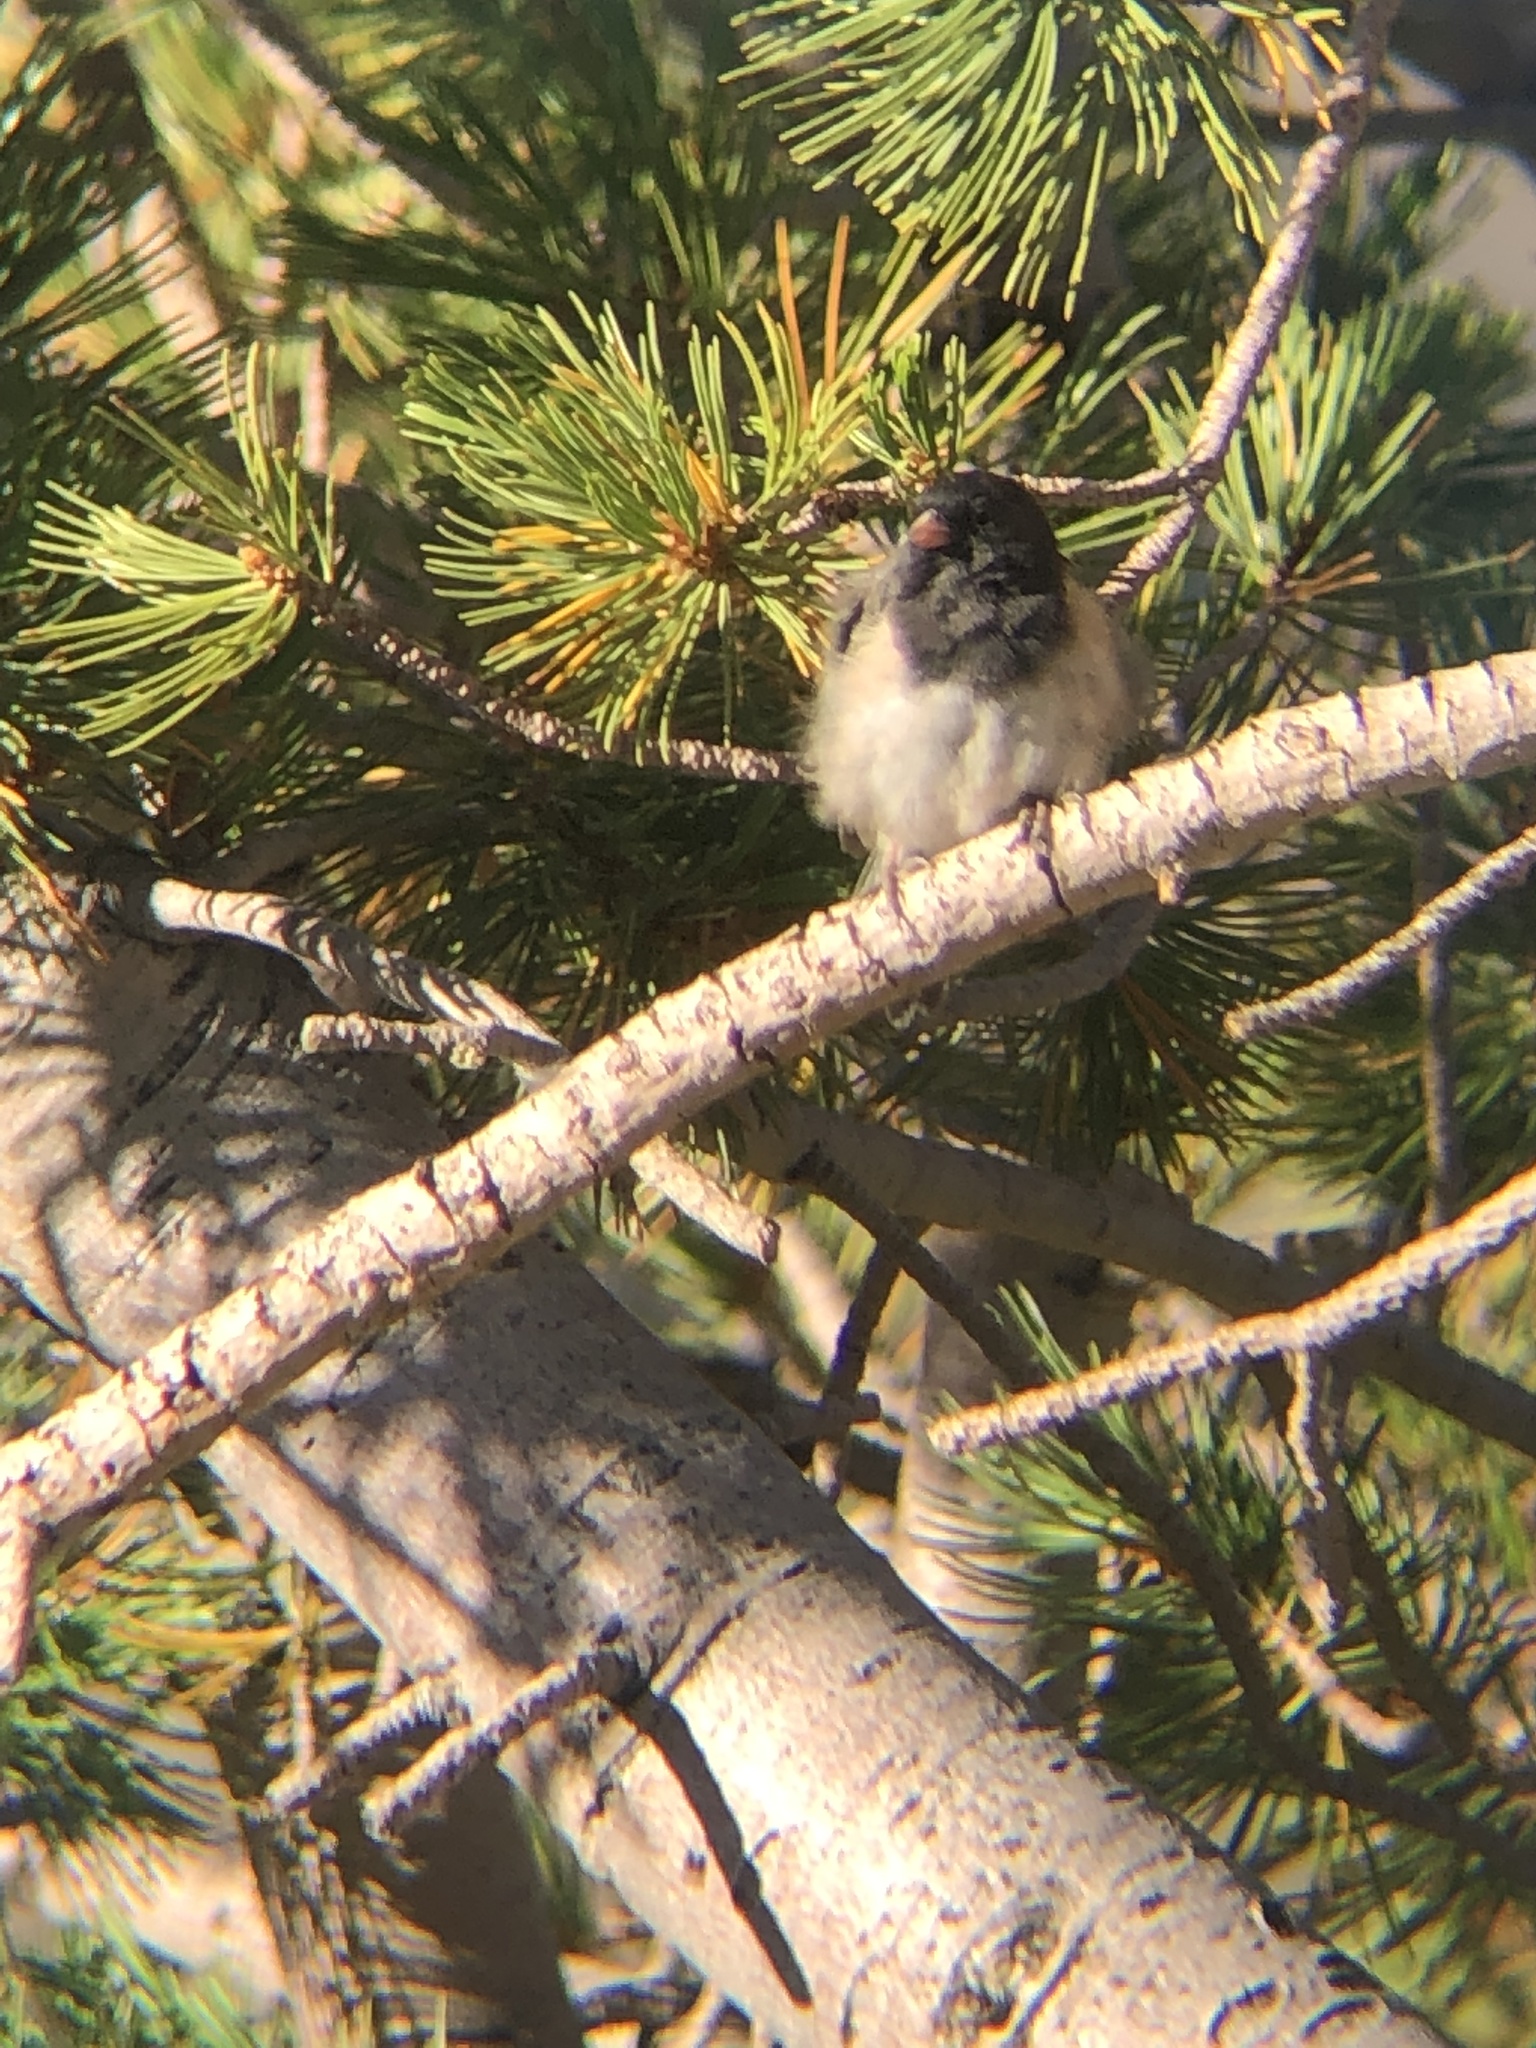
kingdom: Animalia
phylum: Chordata
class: Aves
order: Passeriformes
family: Passerellidae
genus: Junco
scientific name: Junco hyemalis
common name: Dark-eyed junco
